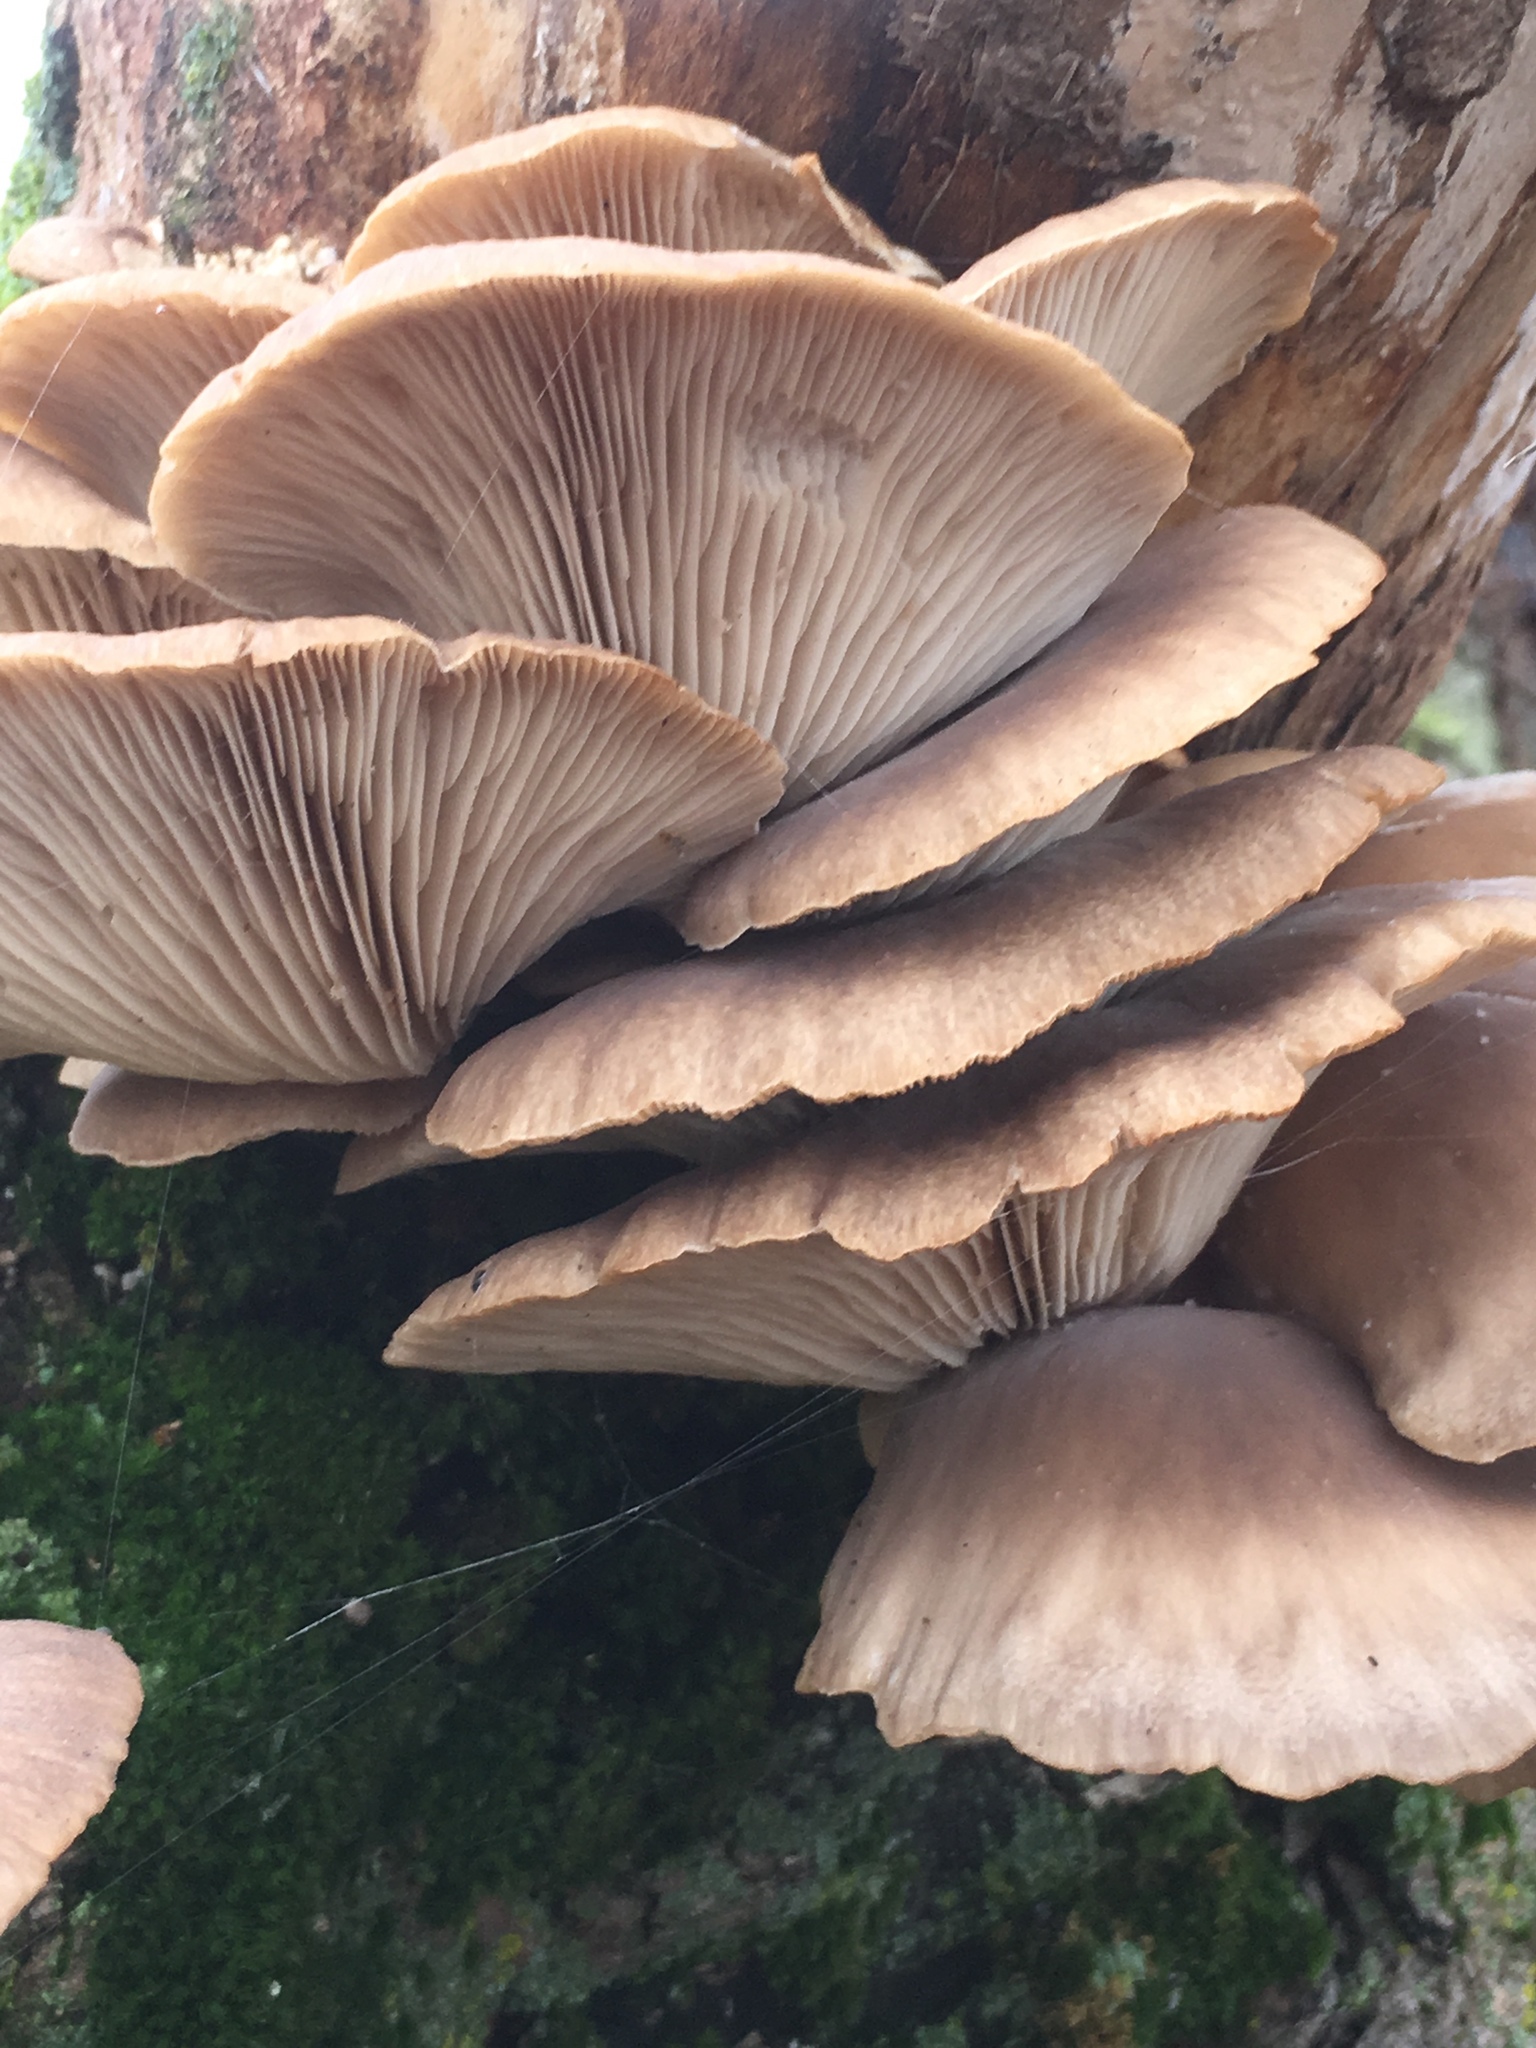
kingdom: Fungi
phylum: Basidiomycota
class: Agaricomycetes
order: Agaricales
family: Pleurotaceae
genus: Pleurotus
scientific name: Pleurotus ostreatus
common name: Oyster mushroom
